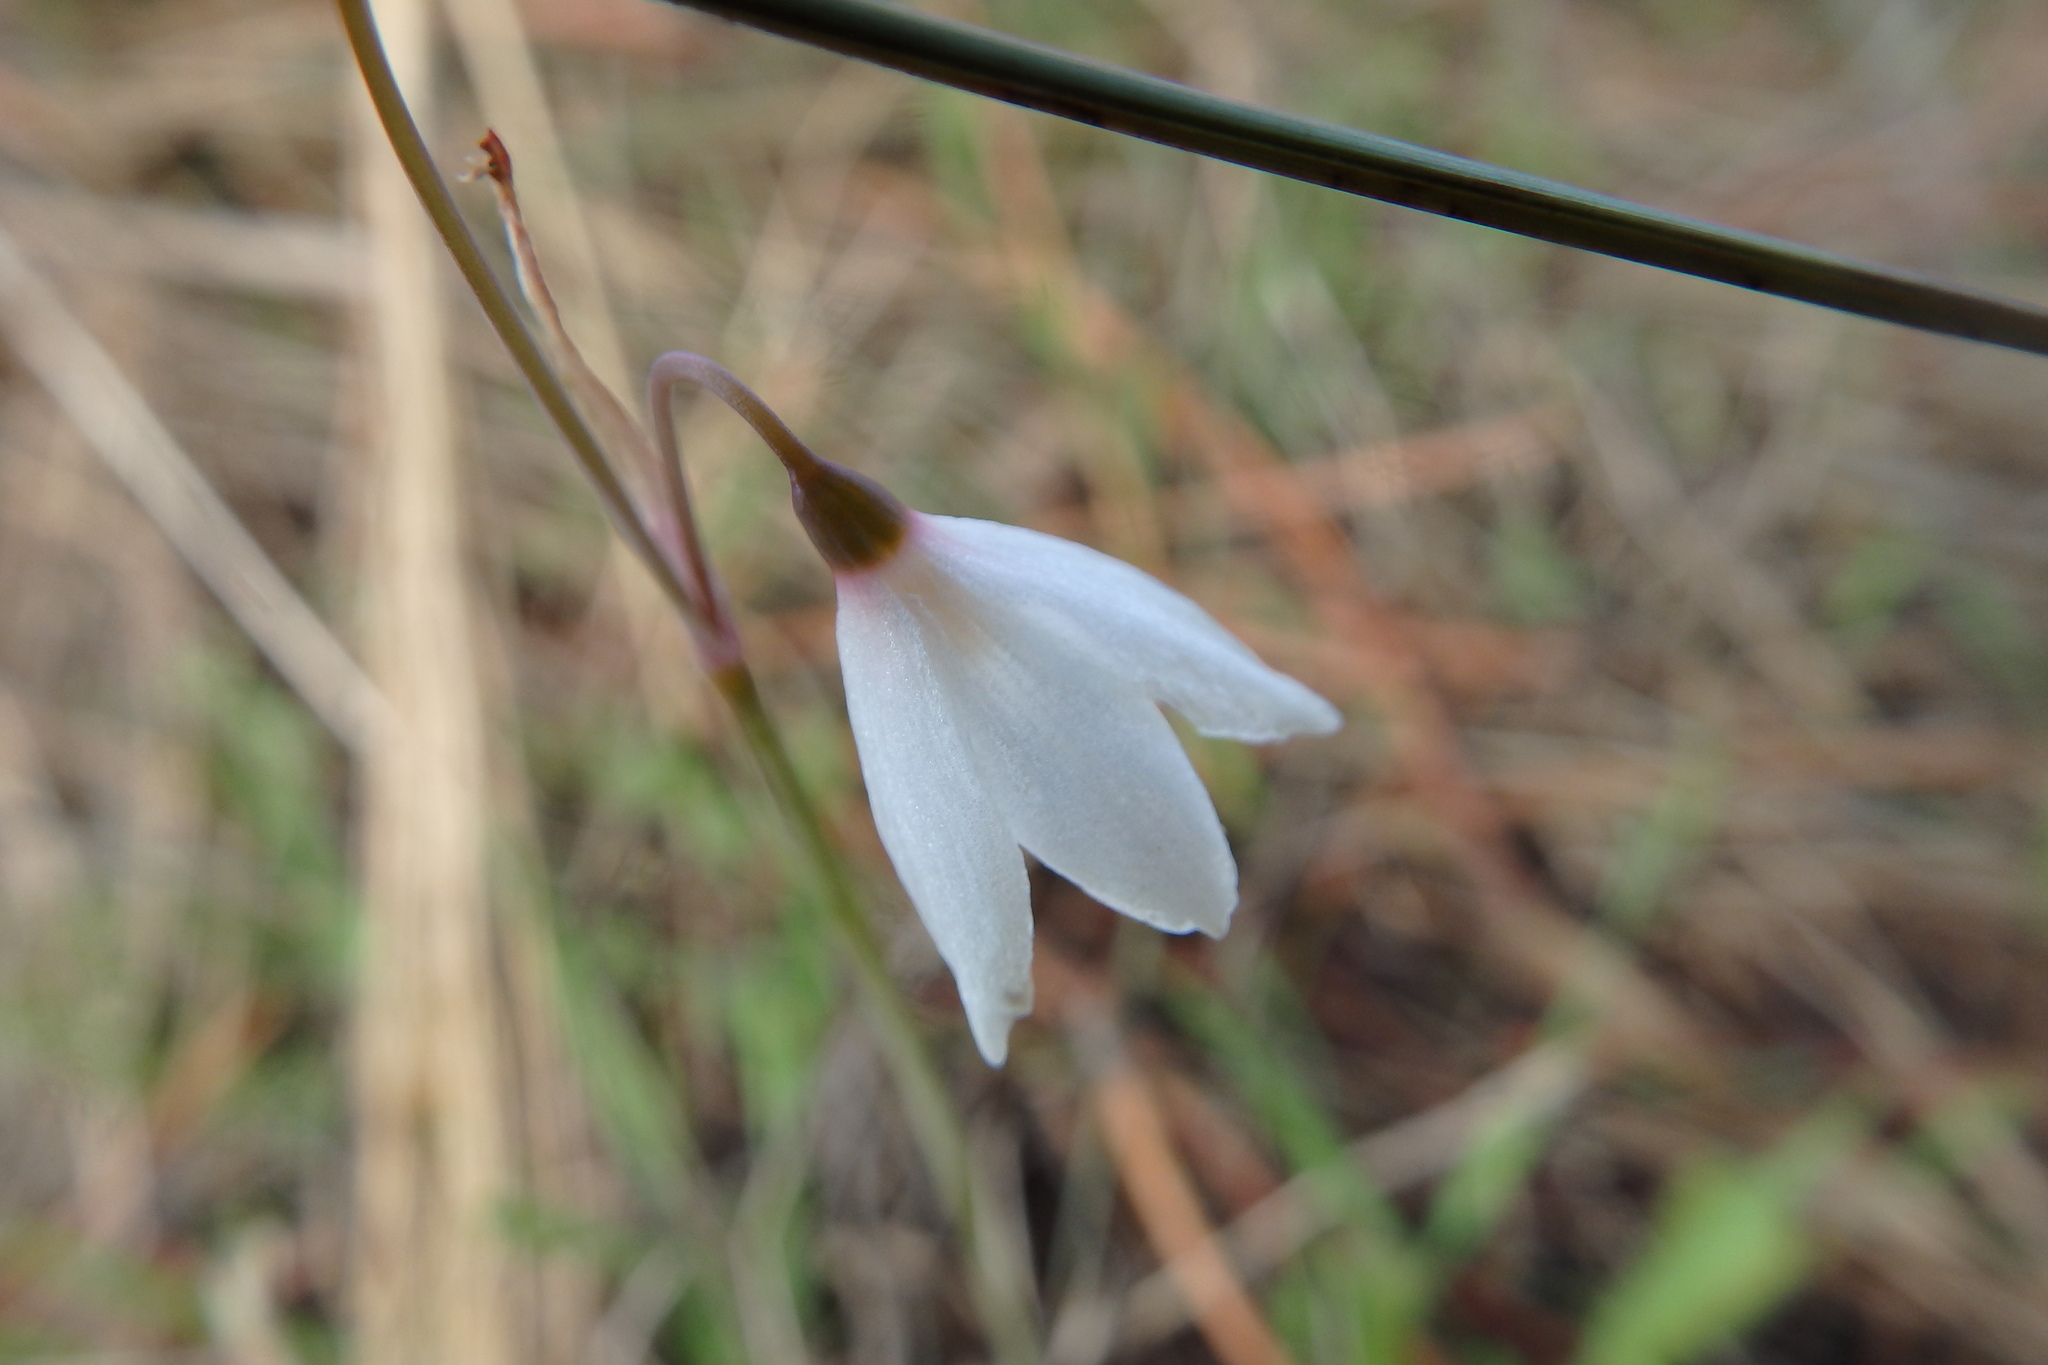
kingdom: Plantae
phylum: Tracheophyta
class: Liliopsida
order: Asparagales
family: Amaryllidaceae
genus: Acis
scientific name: Acis autumnalis
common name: Autumn snowflake
